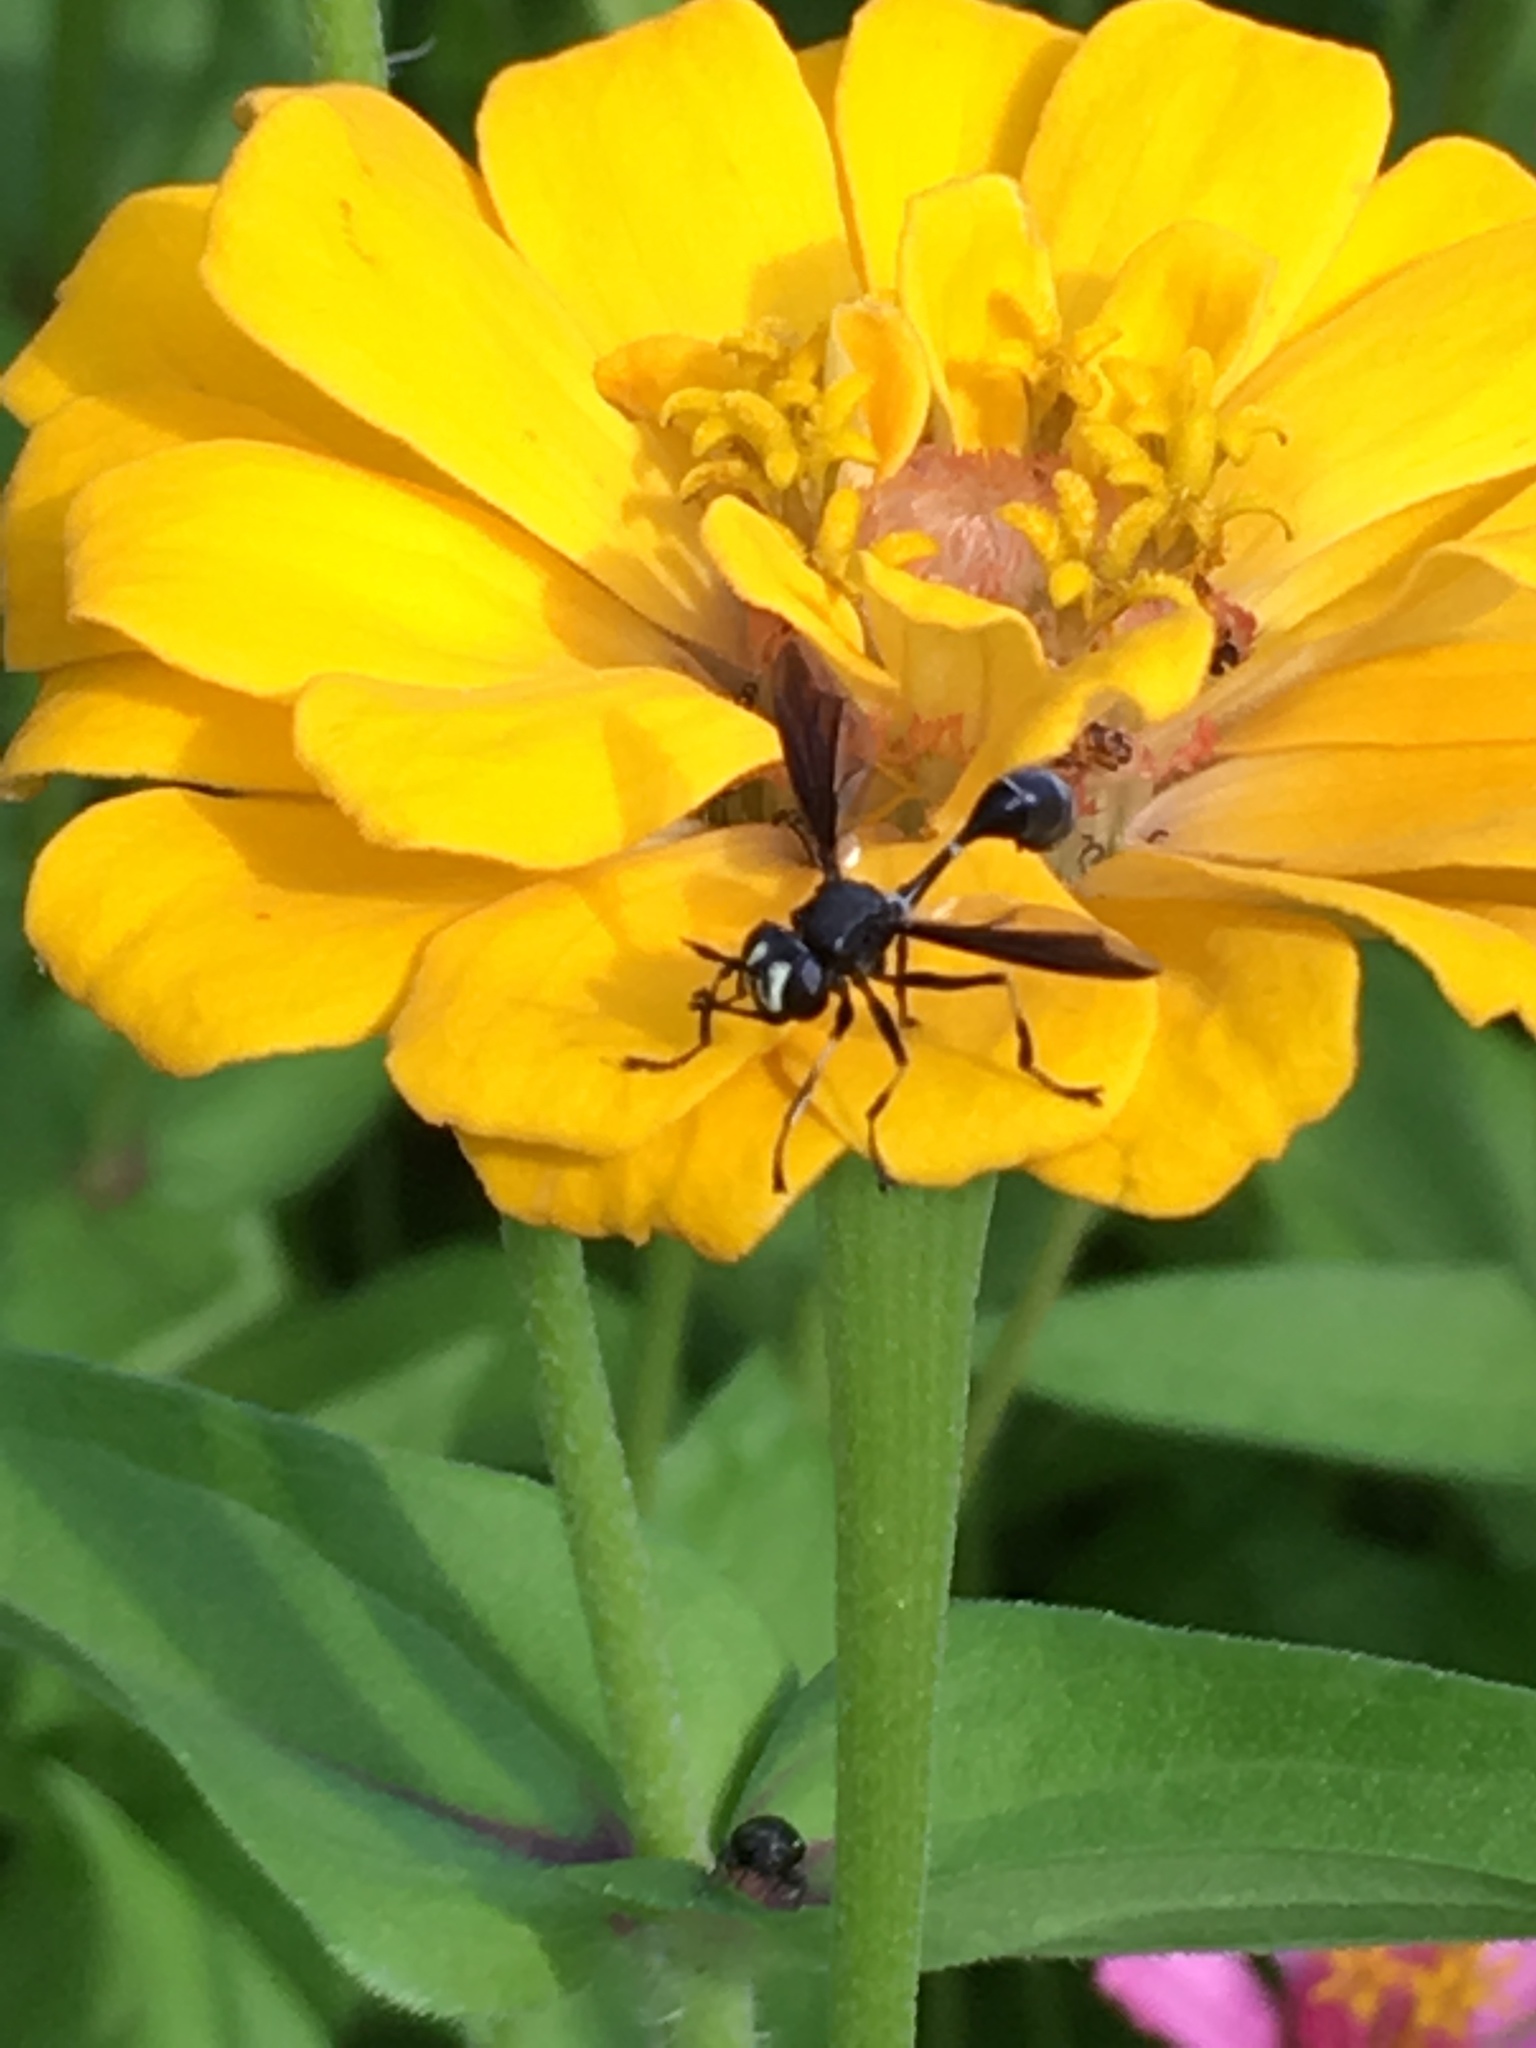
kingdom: Animalia
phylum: Arthropoda
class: Insecta
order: Diptera
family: Conopidae
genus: Physocephala
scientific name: Physocephala tibialis
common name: Common eastern physocephala
